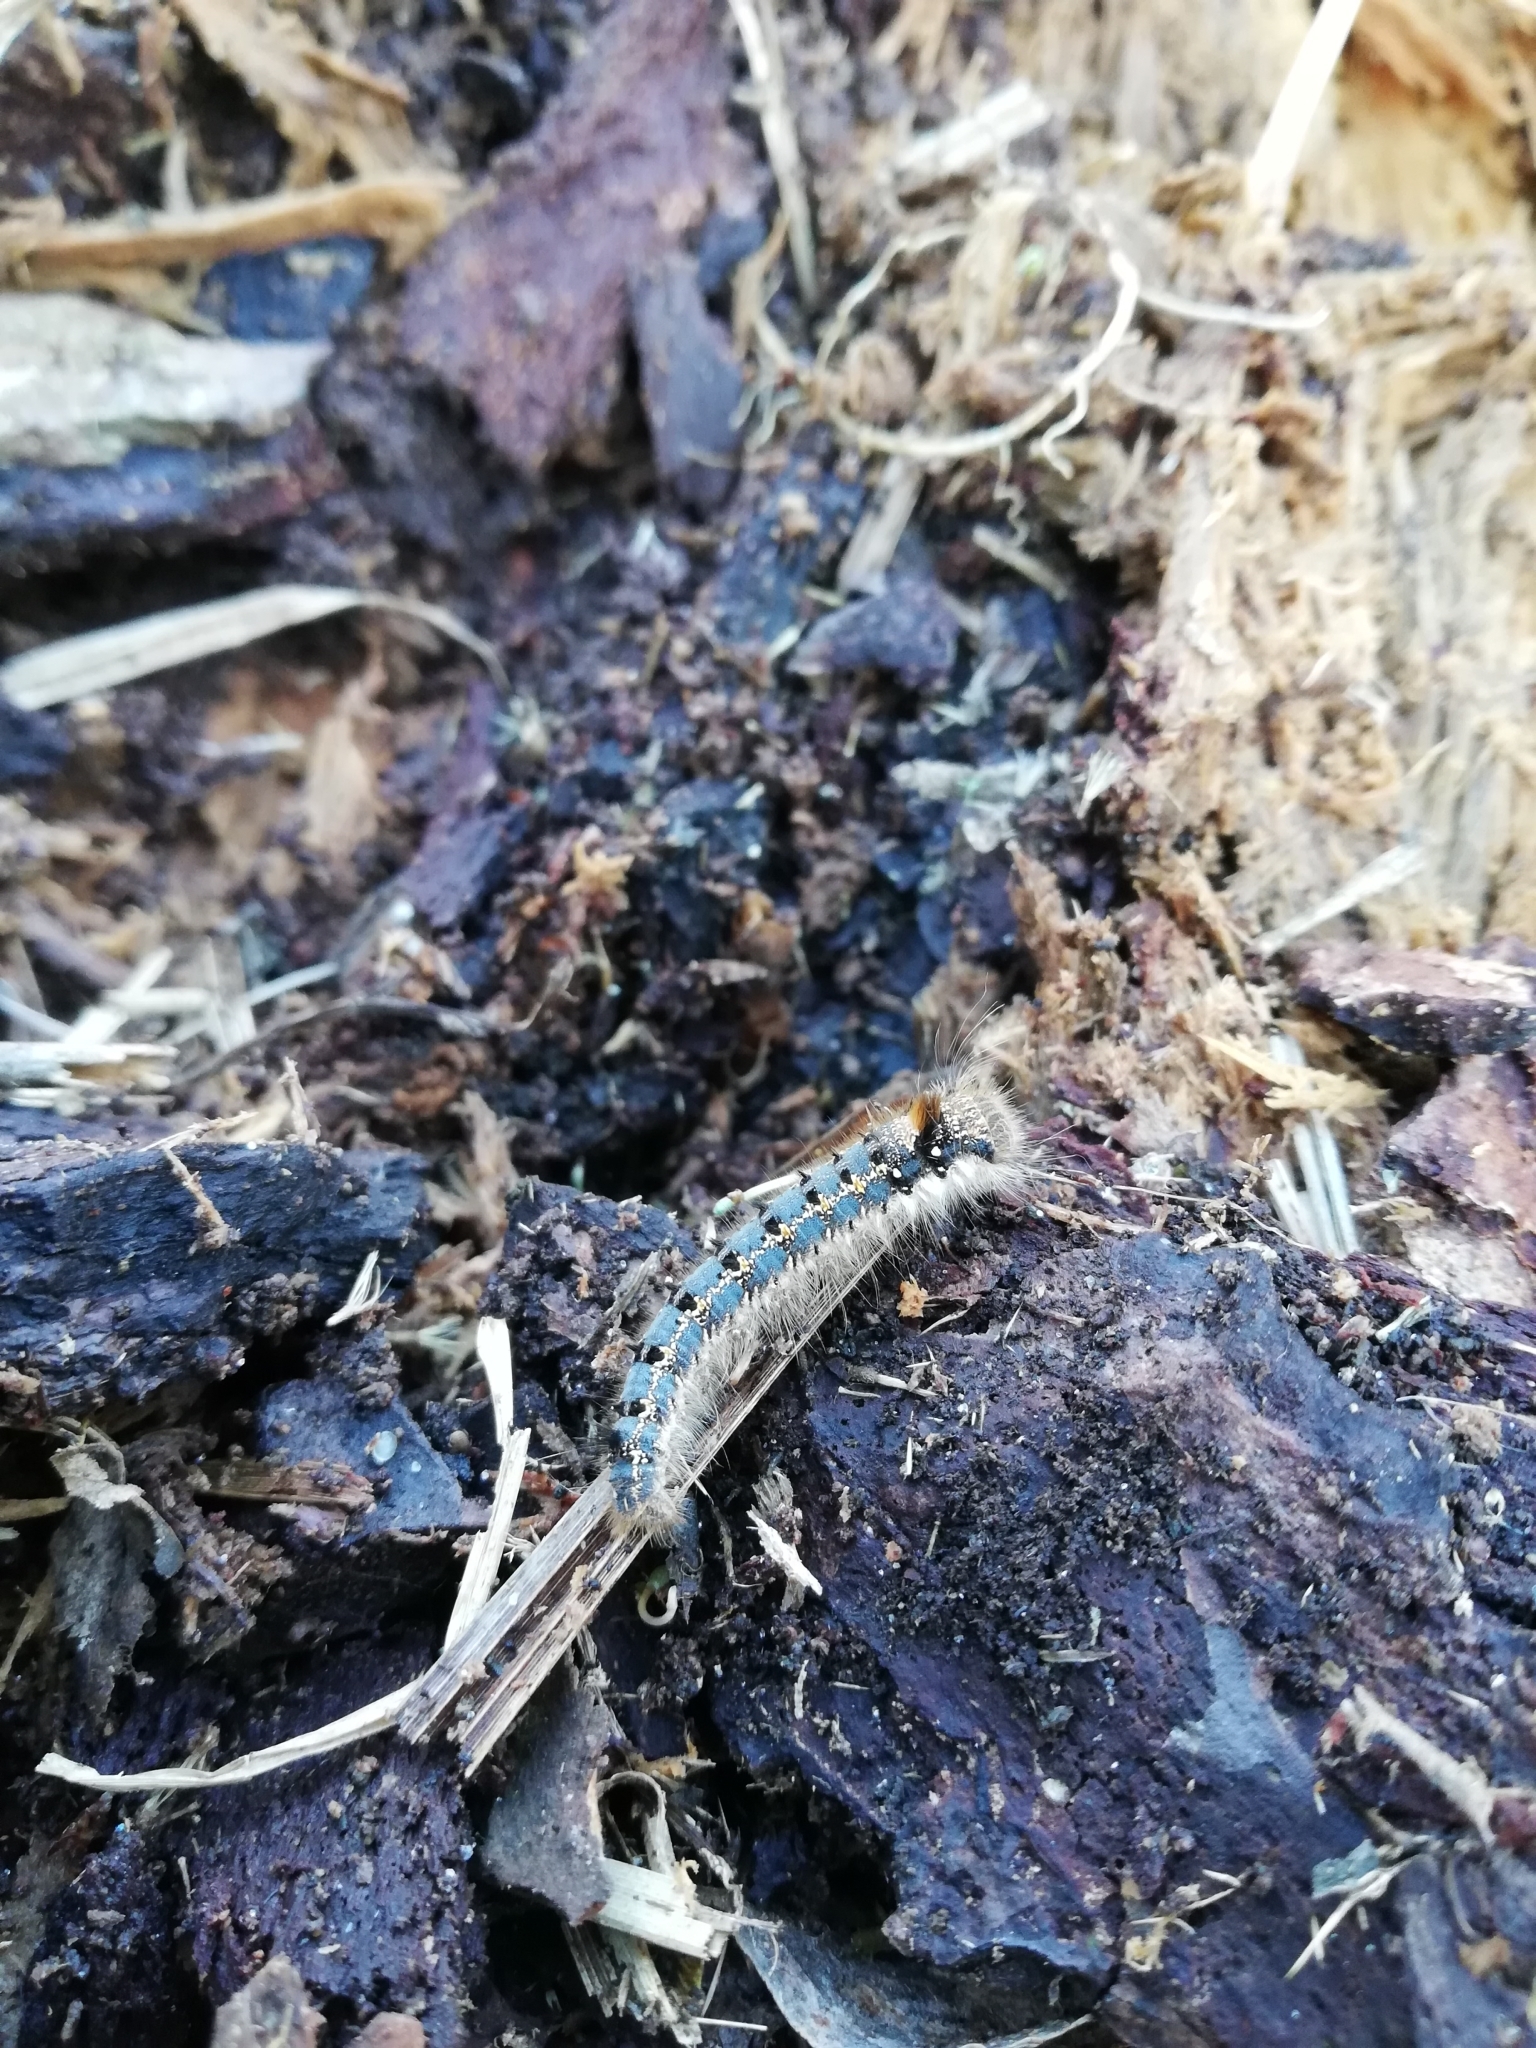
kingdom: Animalia
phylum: Arthropoda
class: Insecta
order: Lepidoptera
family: Lasiocampidae
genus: Euthrix
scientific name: Euthrix potatoria
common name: Drinker
